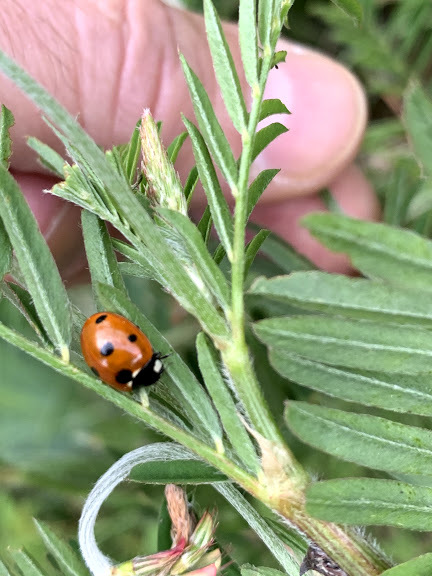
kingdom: Animalia
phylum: Arthropoda
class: Insecta
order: Coleoptera
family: Coccinellidae
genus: Coccinella
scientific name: Coccinella septempunctata
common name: Sevenspotted lady beetle
